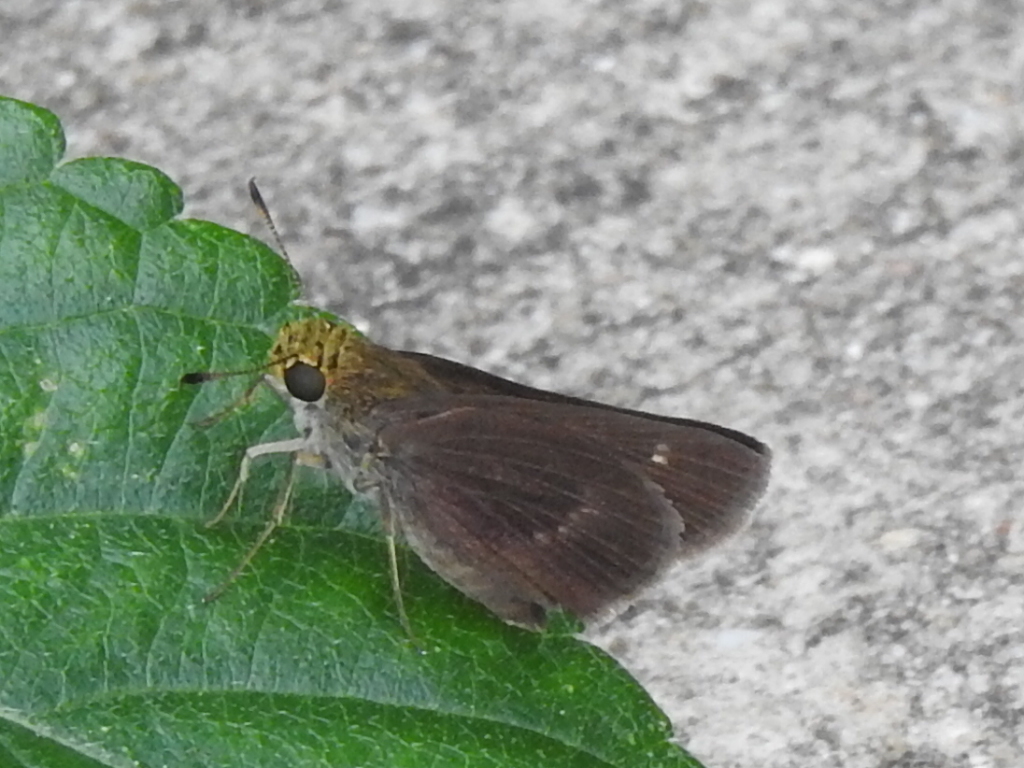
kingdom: Animalia
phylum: Arthropoda
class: Insecta
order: Lepidoptera
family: Hesperiidae
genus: Euphyes
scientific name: Euphyes vestris
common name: Dun skipper
